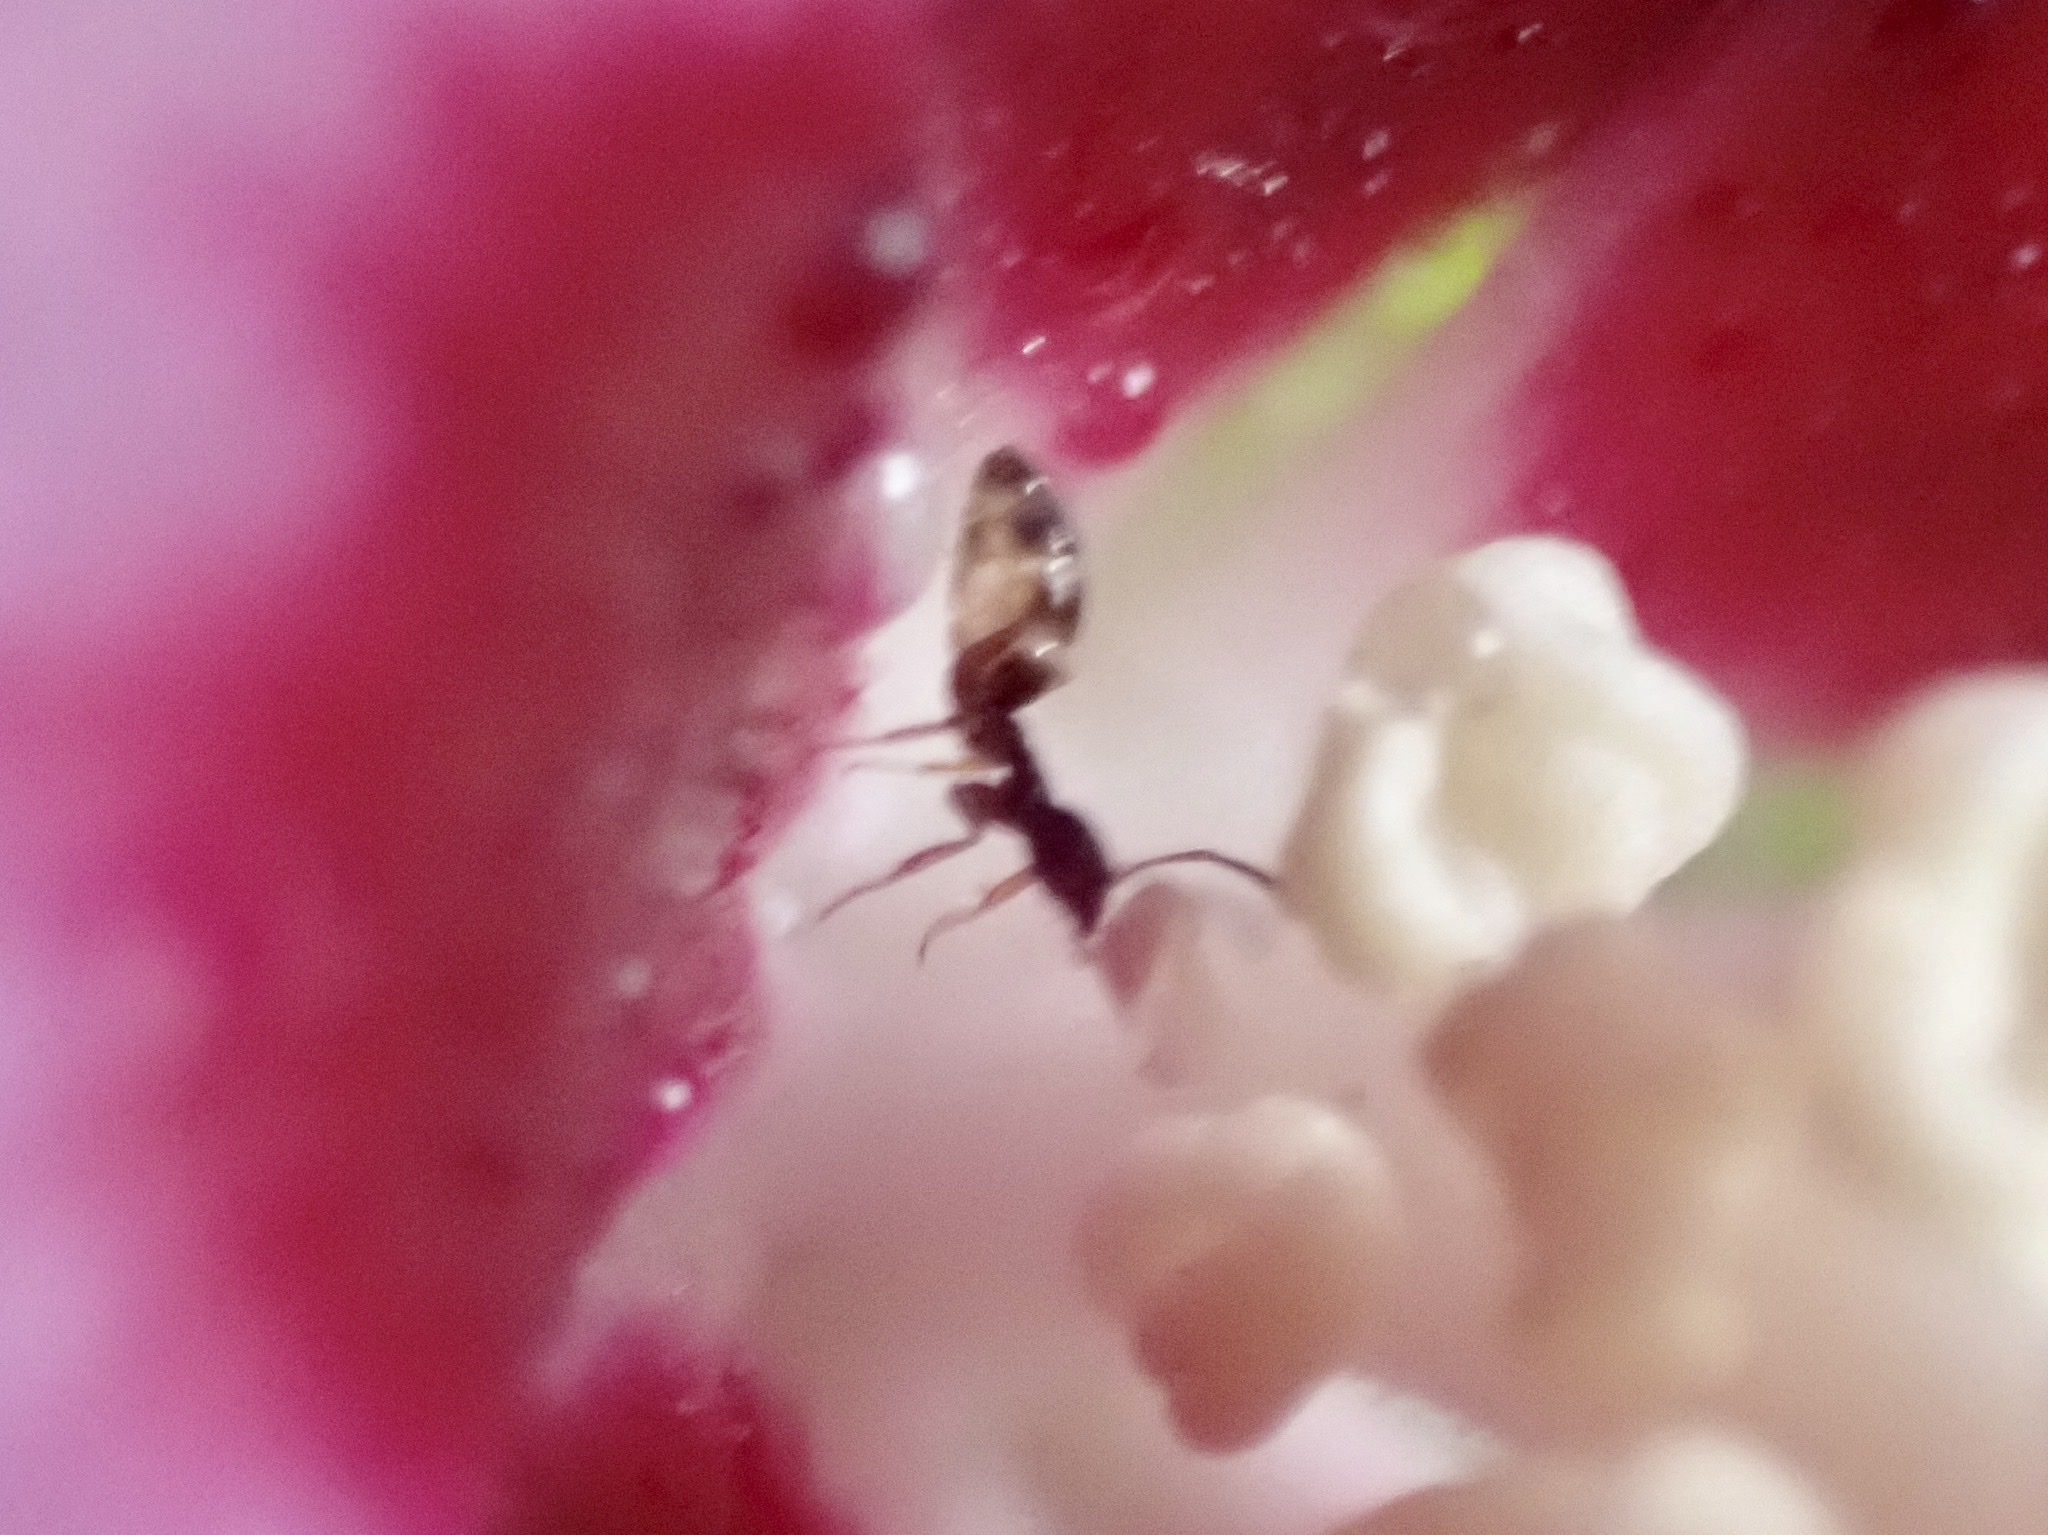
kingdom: Animalia
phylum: Arthropoda
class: Insecta
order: Hymenoptera
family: Formicidae
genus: Tapinoma
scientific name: Tapinoma sessile
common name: Odorous house ant
